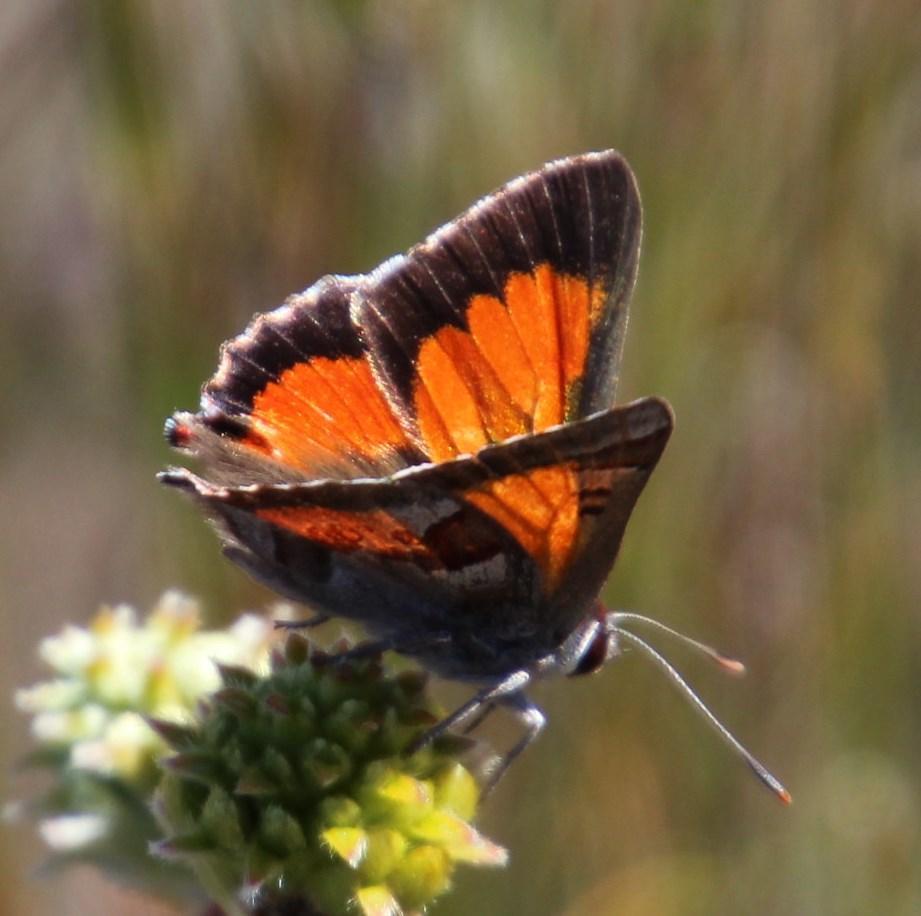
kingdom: Animalia
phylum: Arthropoda
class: Insecta
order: Lepidoptera
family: Lycaenidae
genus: Capys
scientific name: Capys alpheus
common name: Orange-banded protea butterfly
